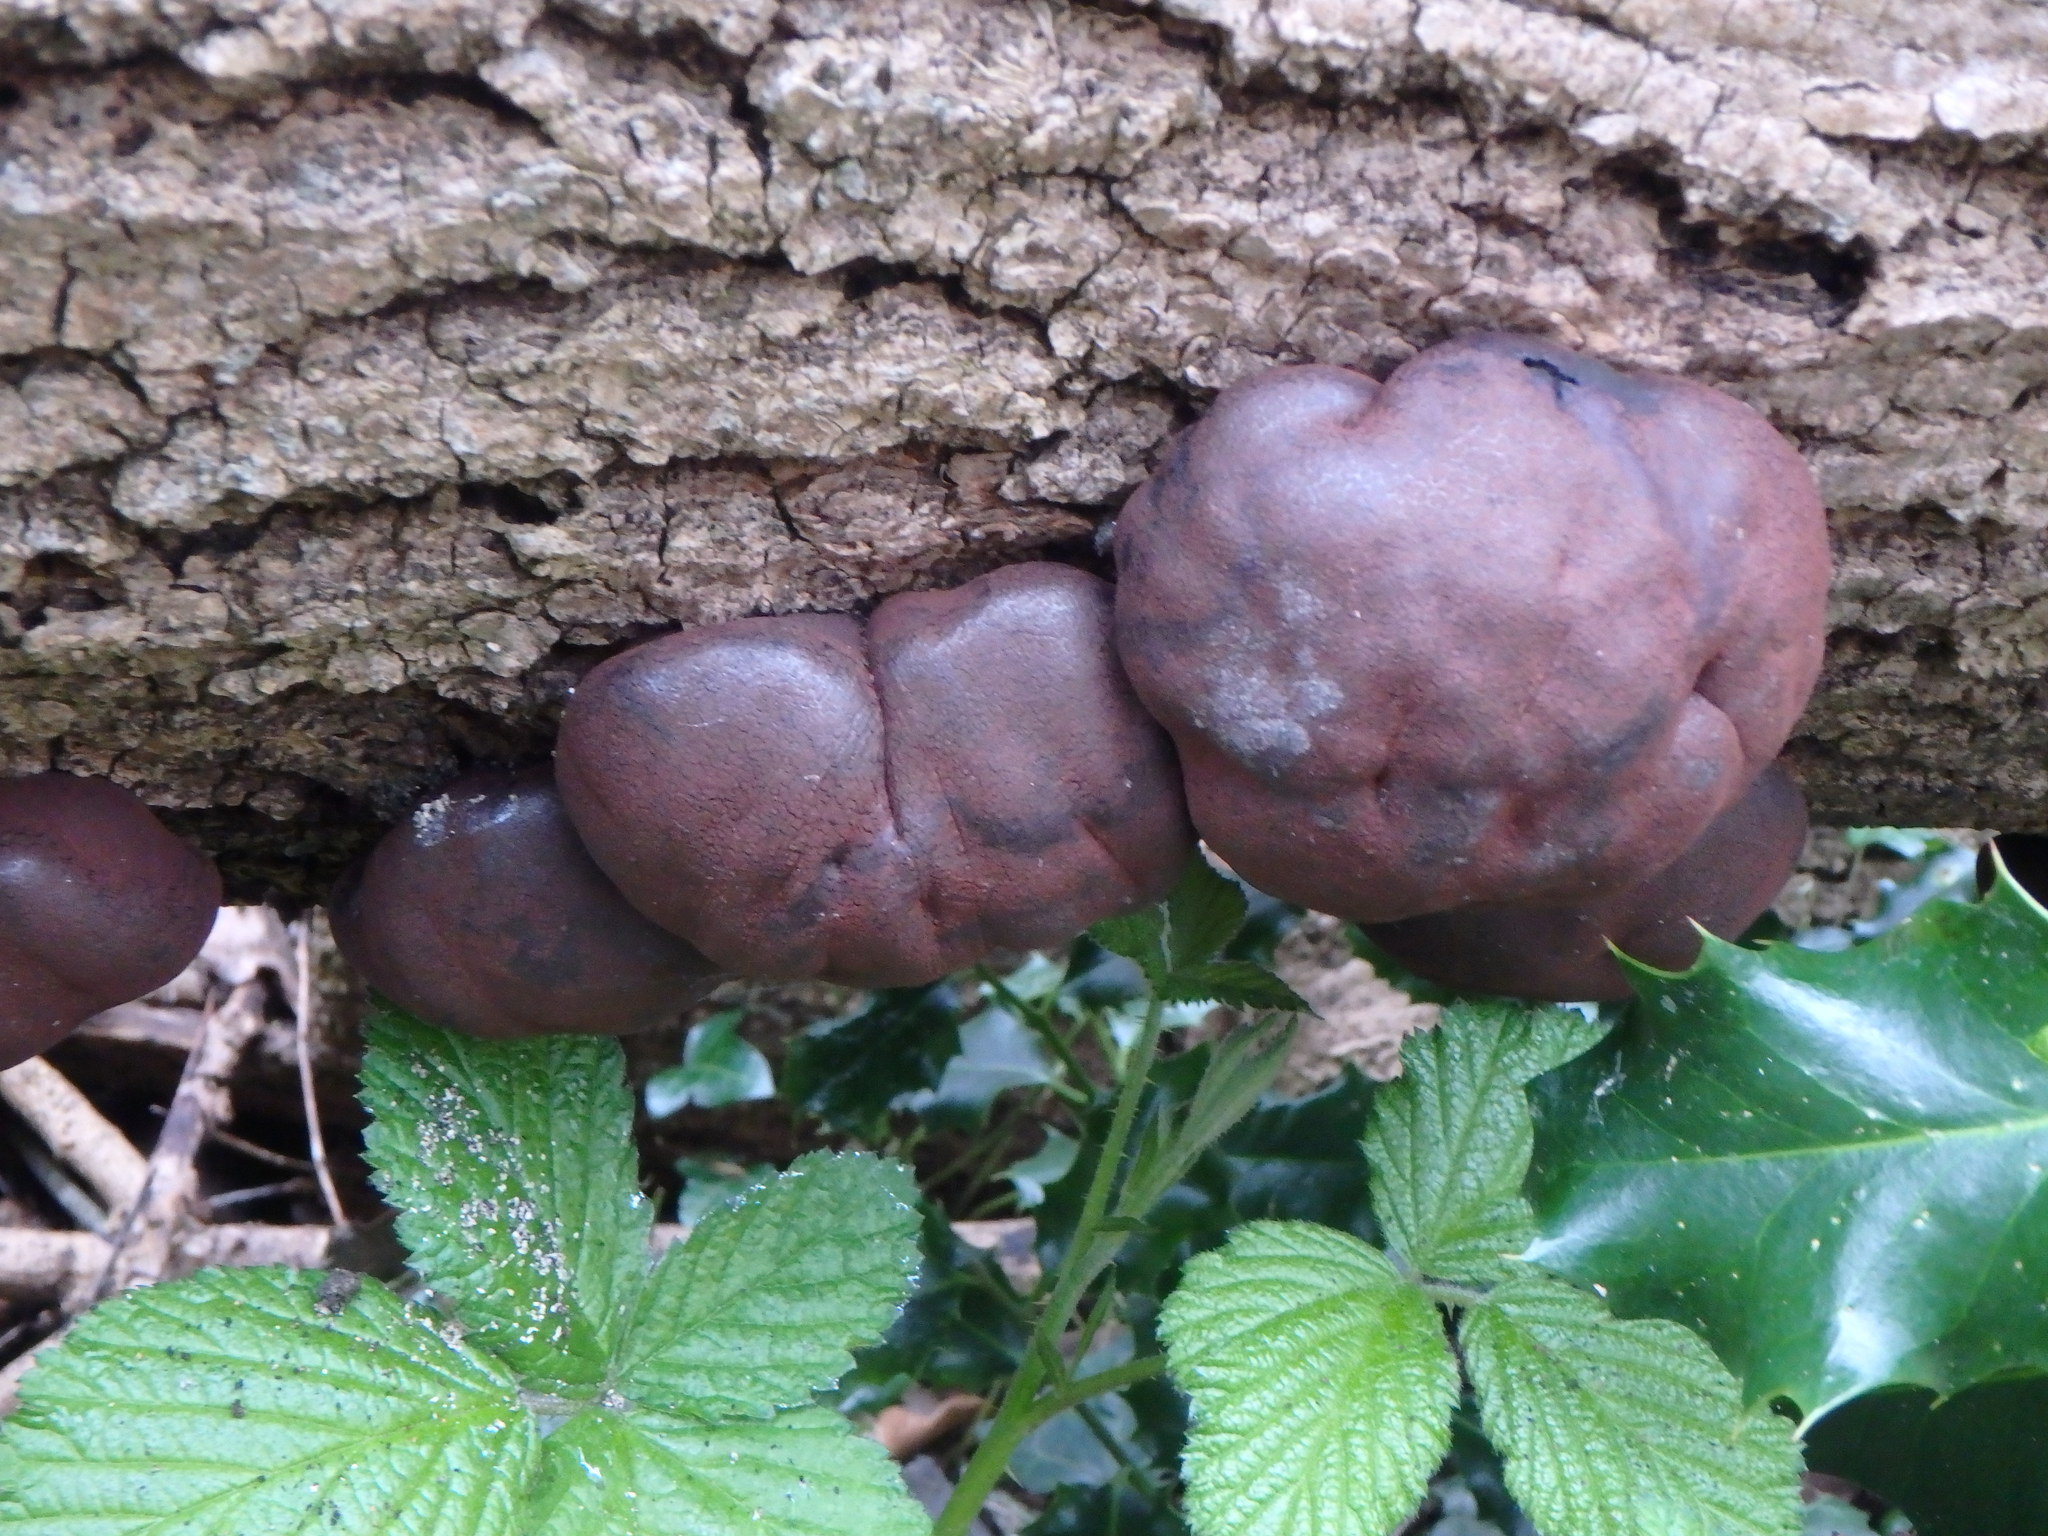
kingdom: Fungi
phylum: Ascomycota
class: Sordariomycetes
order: Xylariales
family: Hypoxylaceae
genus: Daldinia
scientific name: Daldinia concentrica
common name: Cramp balls
